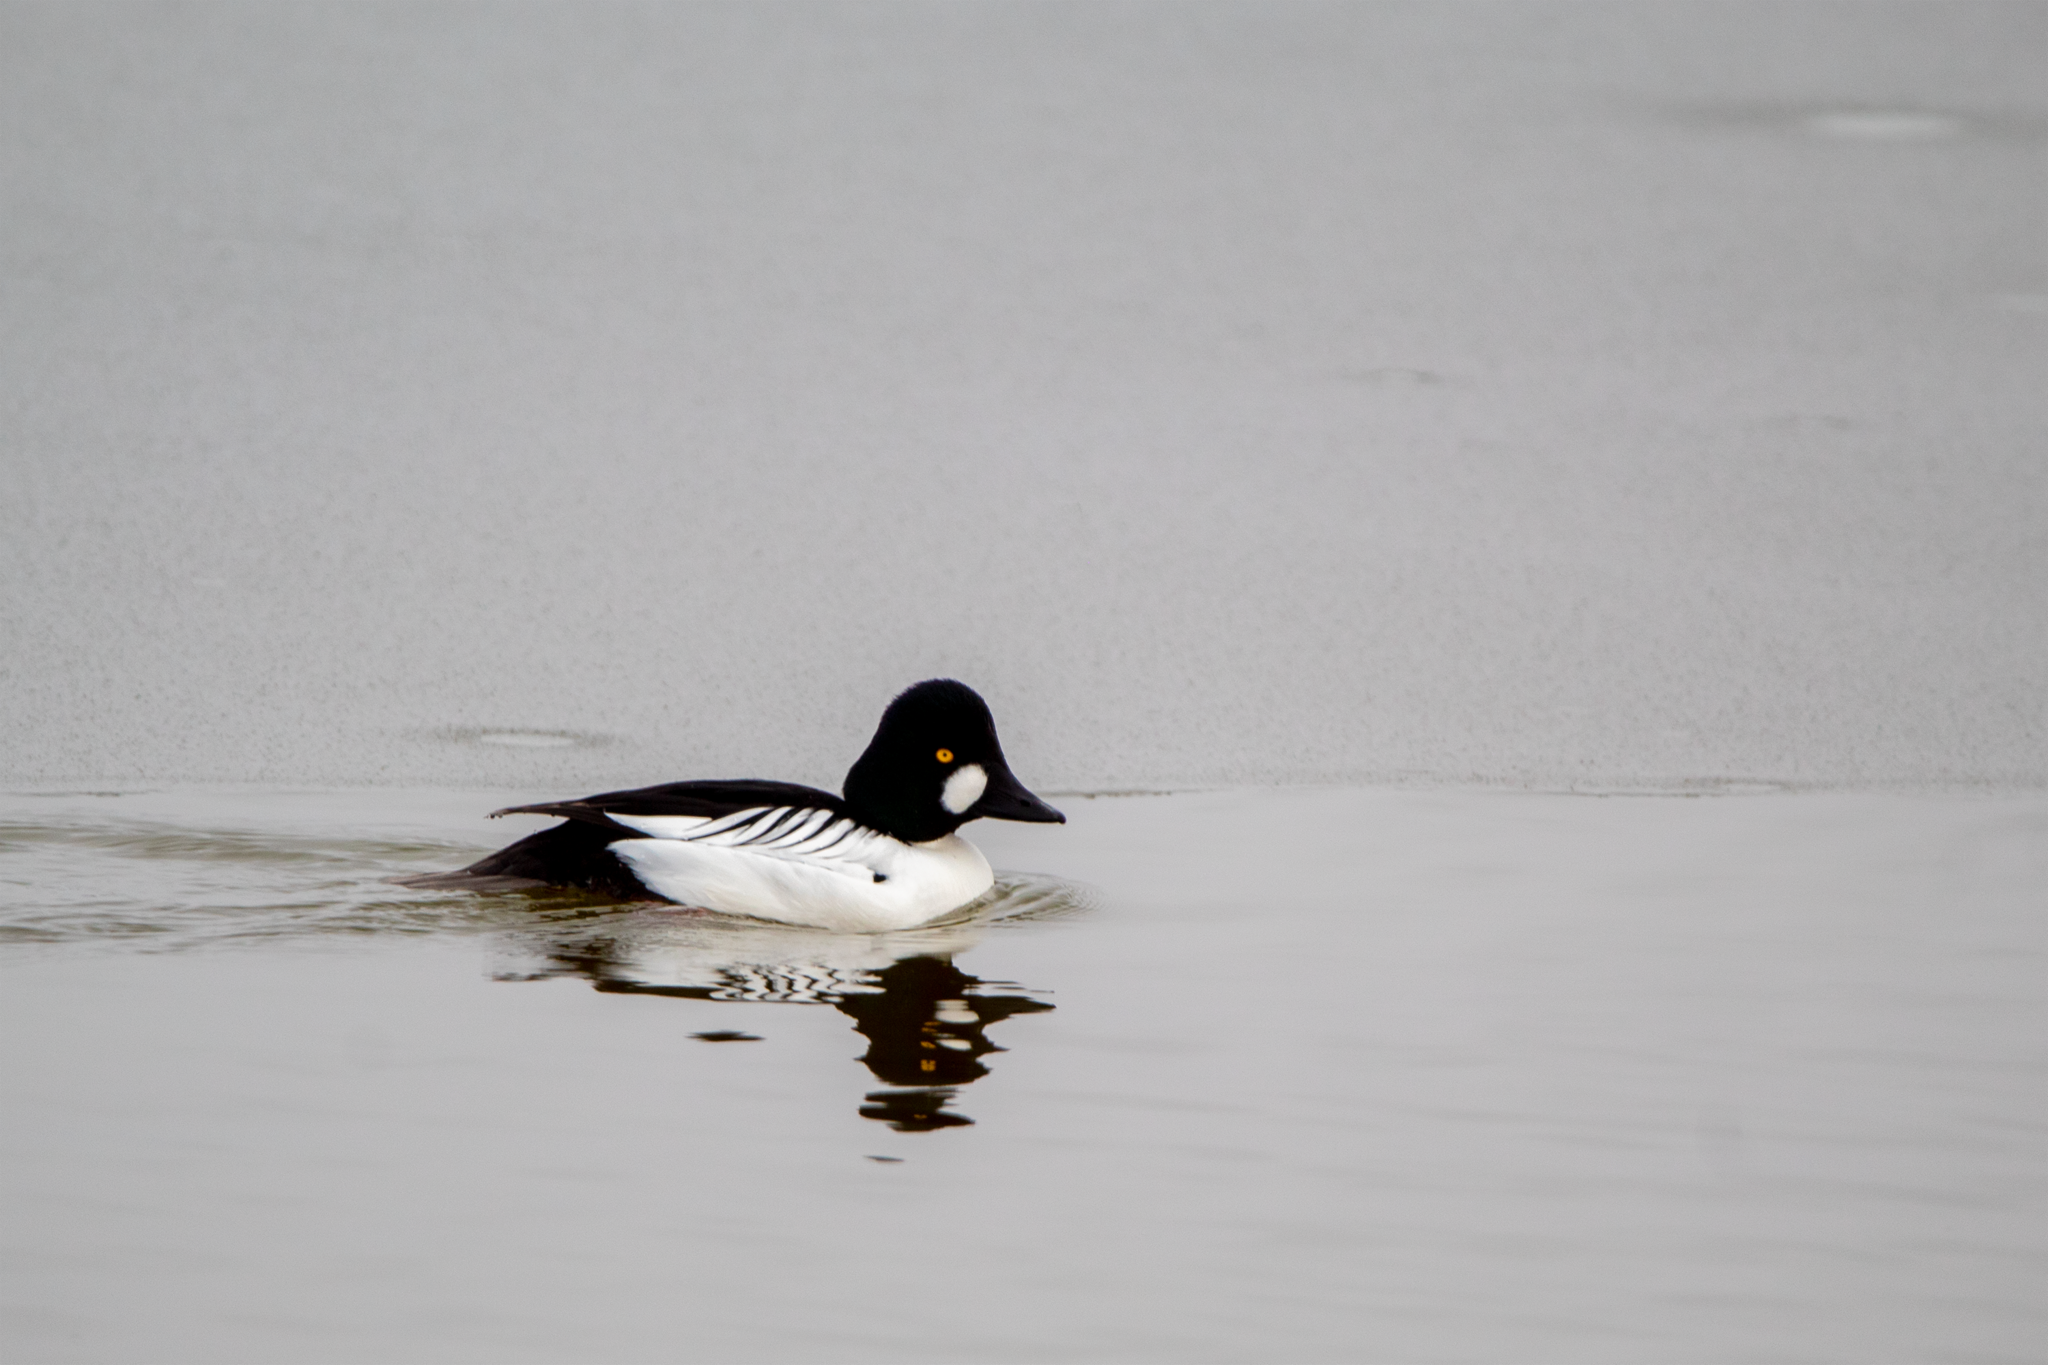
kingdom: Animalia
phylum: Chordata
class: Aves
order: Anseriformes
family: Anatidae
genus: Bucephala
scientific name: Bucephala clangula
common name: Common goldeneye
